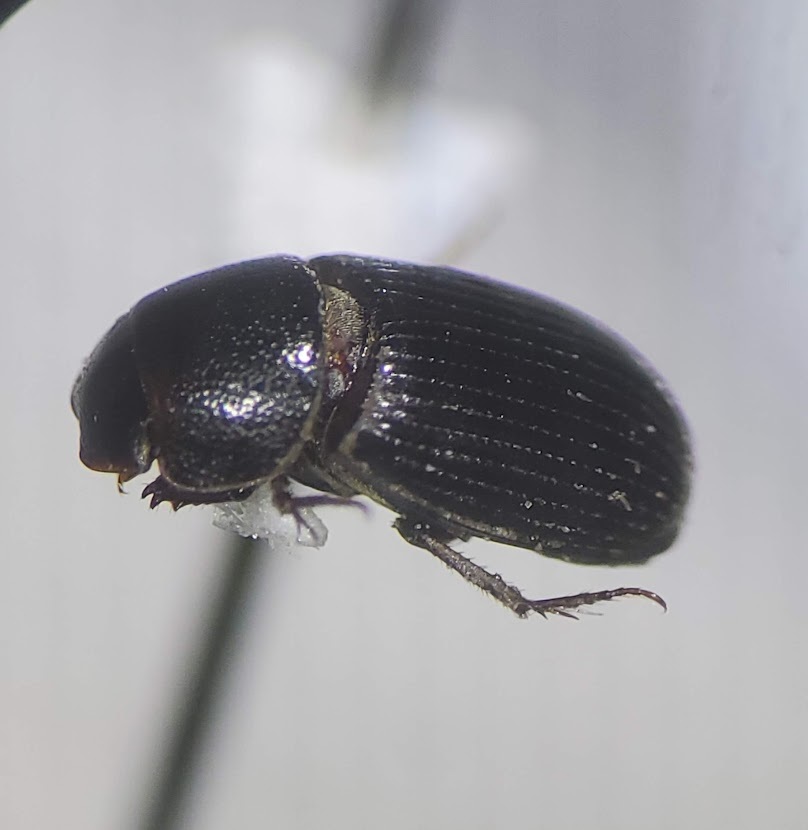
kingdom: Animalia
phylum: Arthropoda
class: Insecta
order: Coleoptera
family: Scarabaeidae
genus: Ataenius
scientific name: Ataenius strigatus
